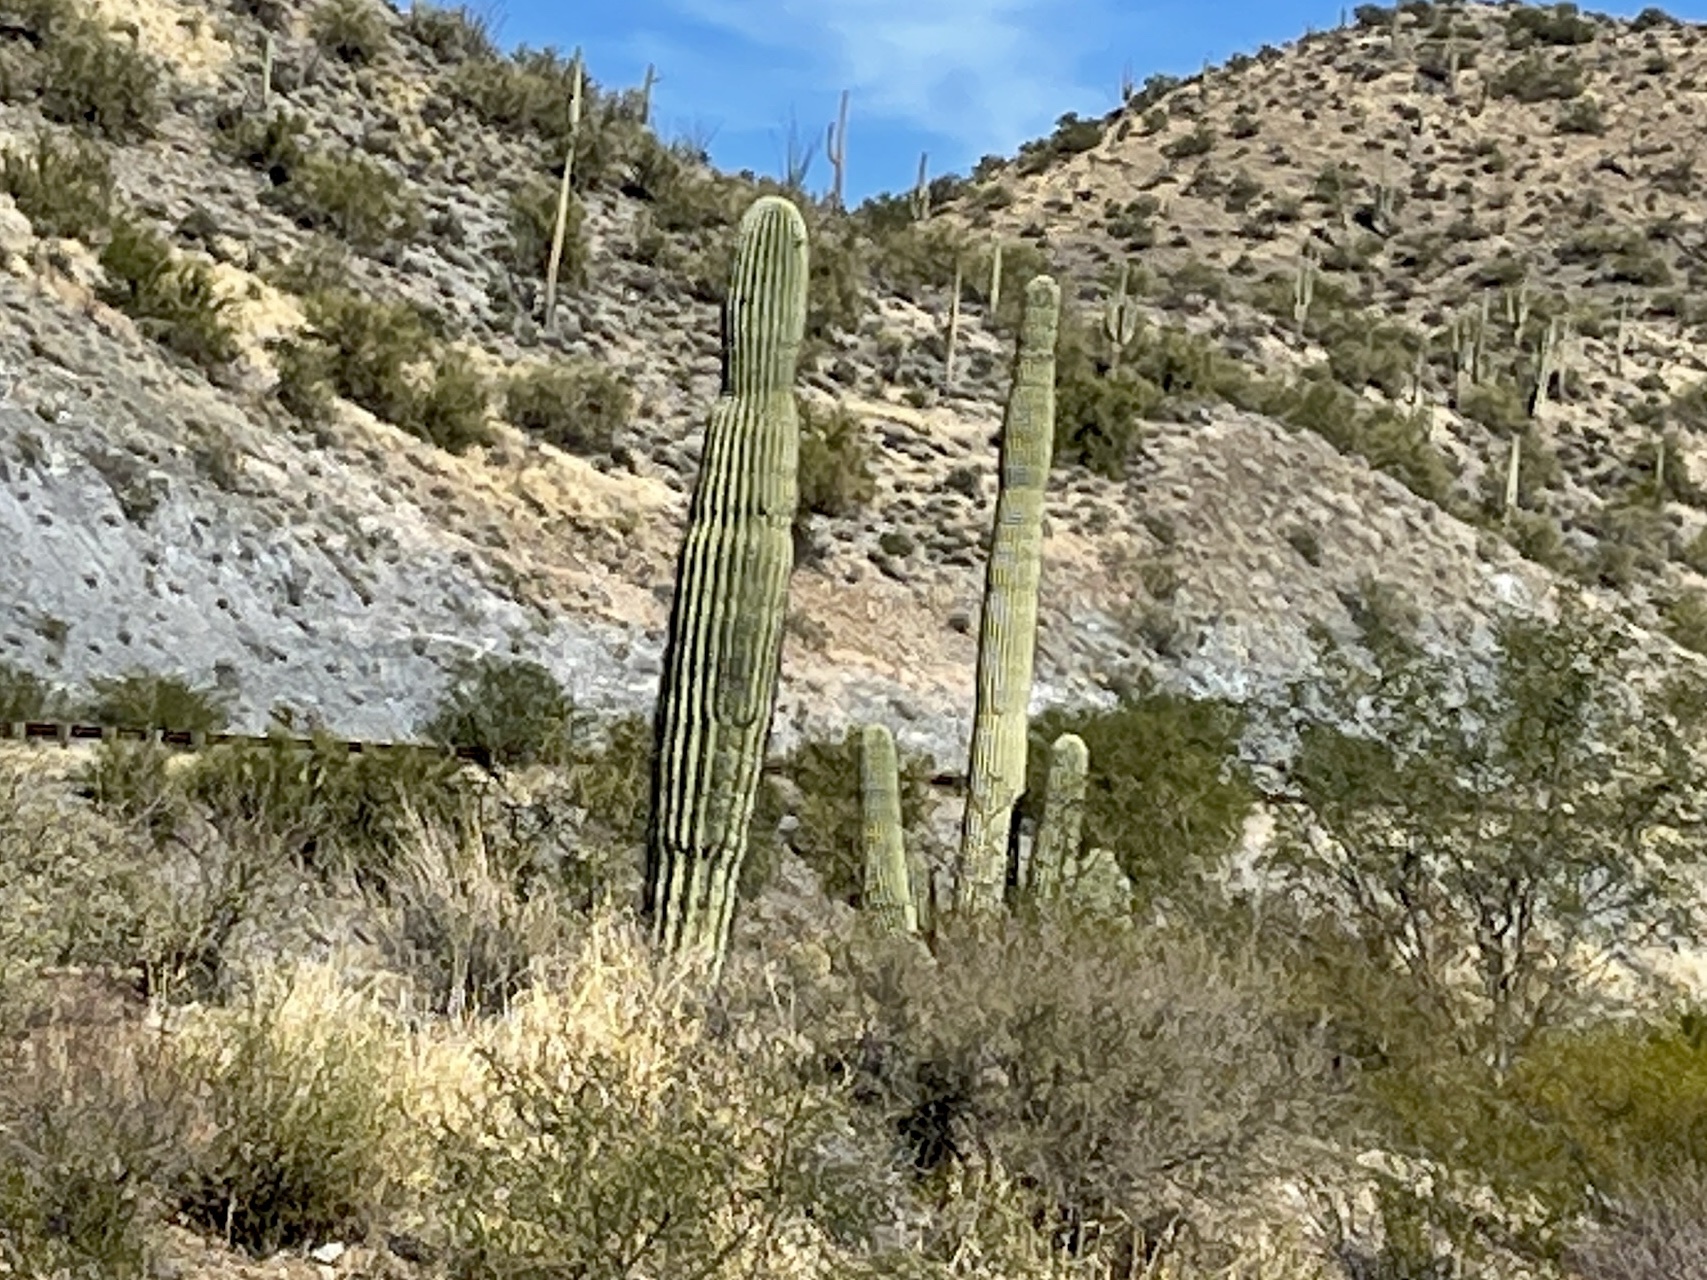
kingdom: Plantae
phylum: Tracheophyta
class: Magnoliopsida
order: Caryophyllales
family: Cactaceae
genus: Carnegiea
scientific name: Carnegiea gigantea
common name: Saguaro
